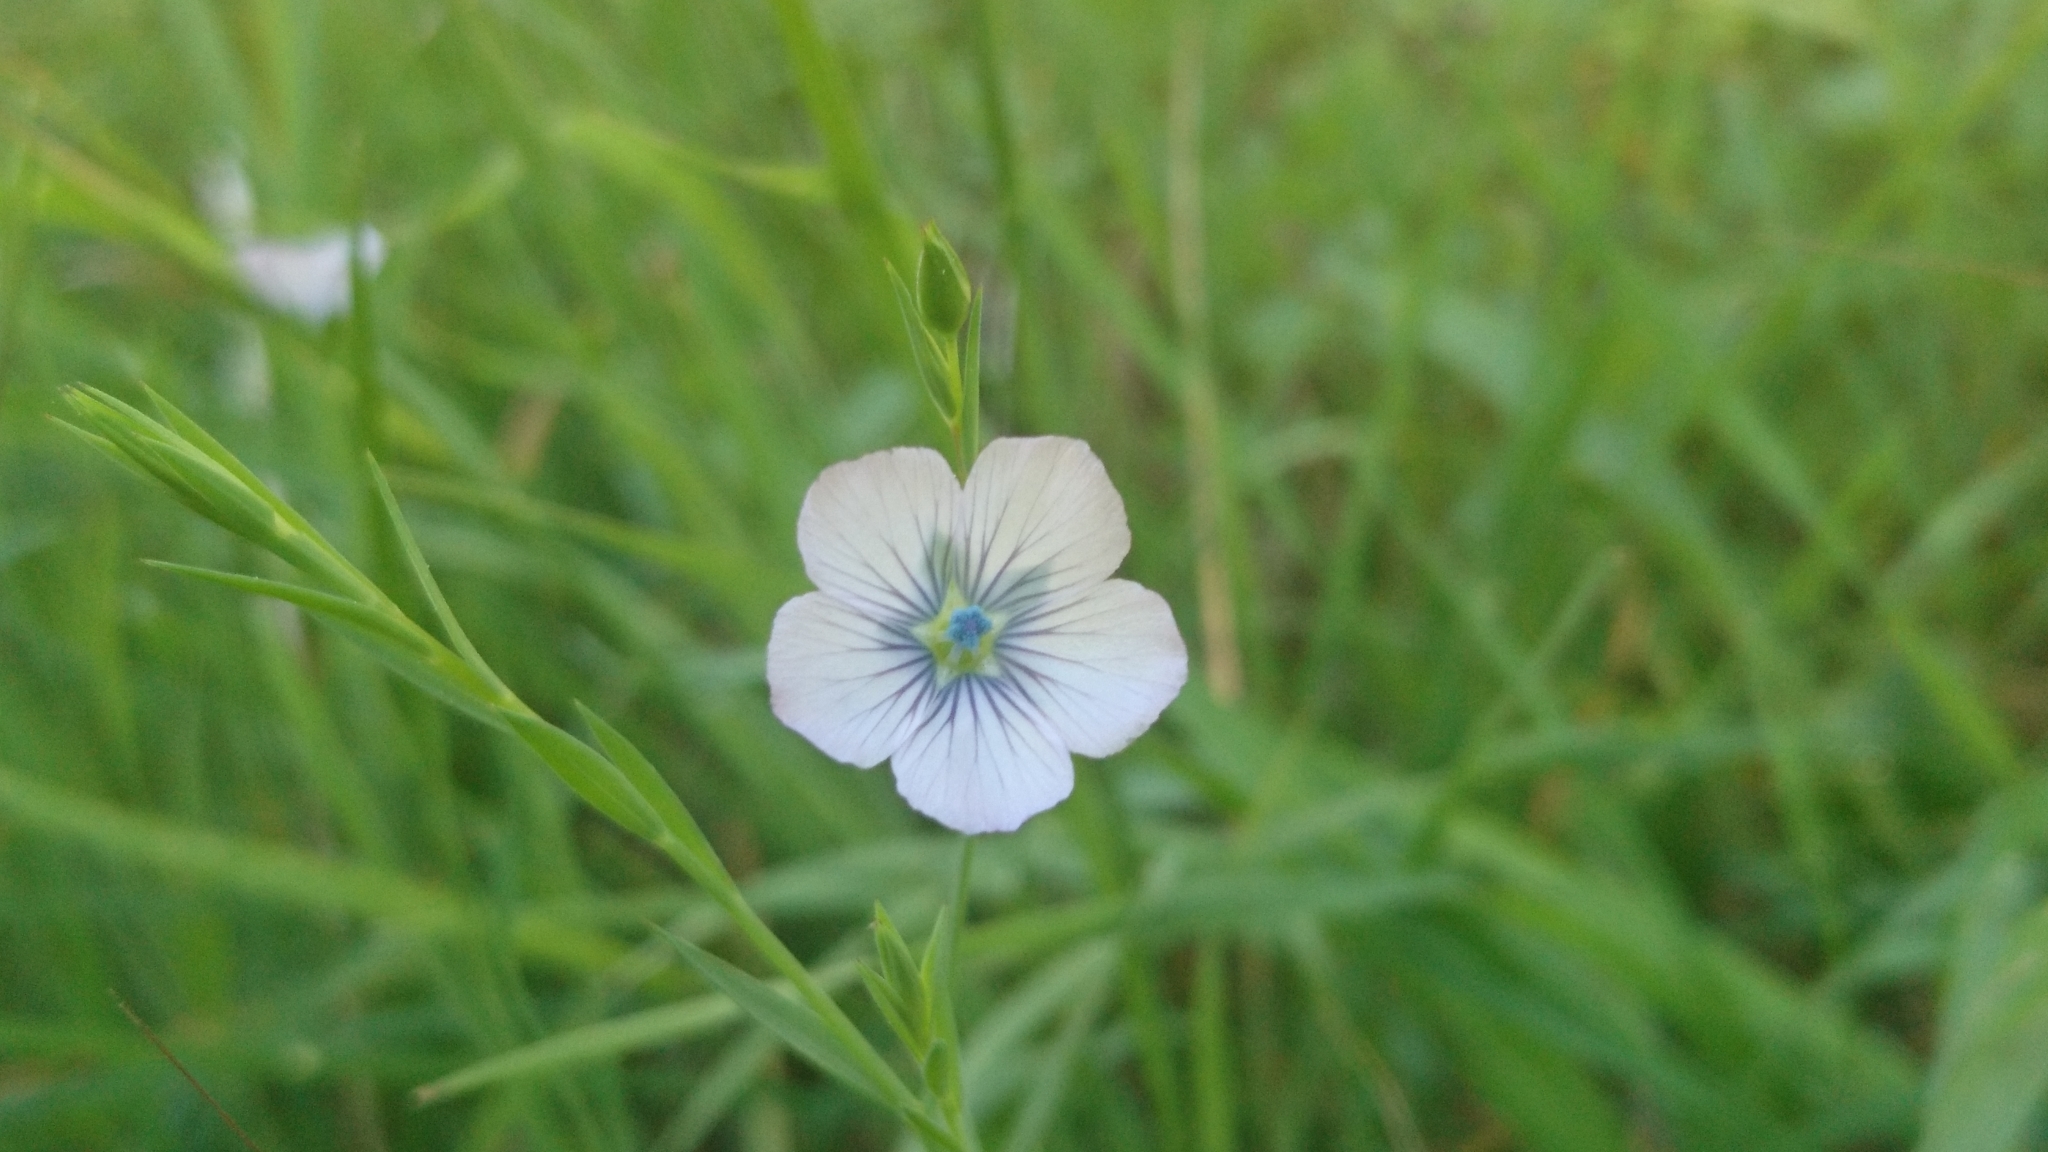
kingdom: Plantae
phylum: Tracheophyta
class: Magnoliopsida
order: Malpighiales
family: Linaceae
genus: Linum
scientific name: Linum bienne
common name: Pale flax
